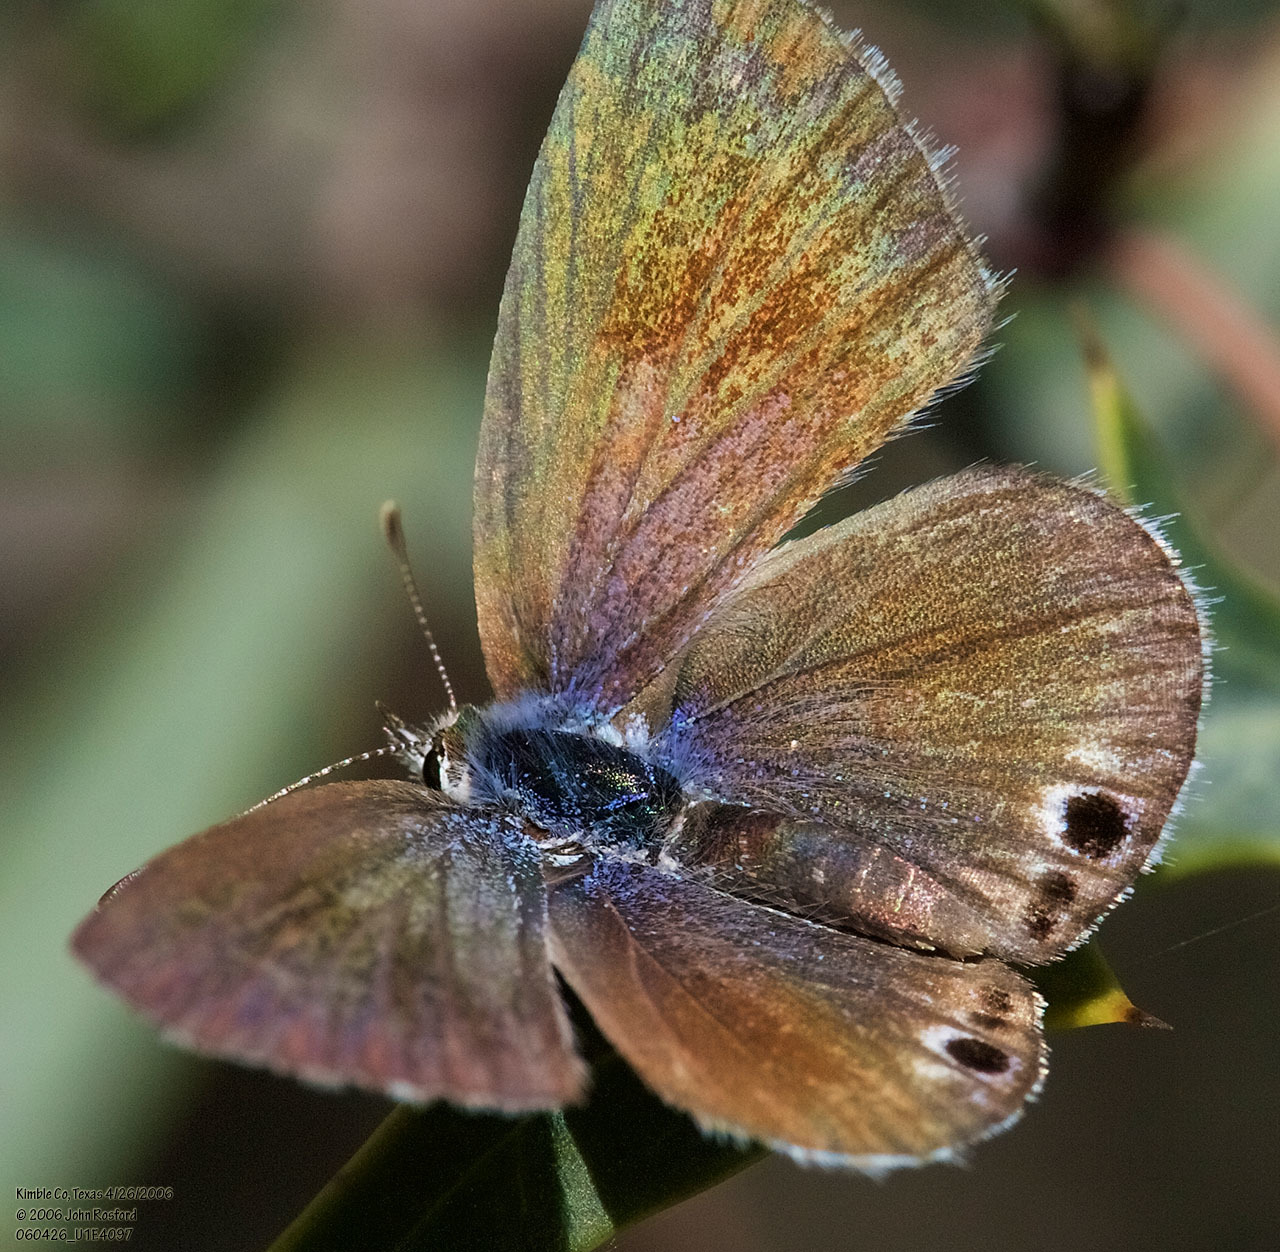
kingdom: Animalia
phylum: Arthropoda
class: Insecta
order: Lepidoptera
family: Lycaenidae
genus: Echinargus
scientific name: Echinargus isola
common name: Reakirt's blue
